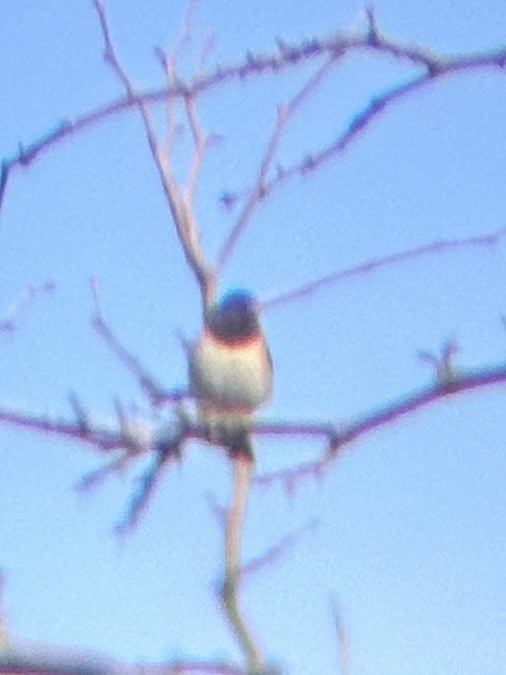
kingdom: Animalia
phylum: Chordata
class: Aves
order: Passeriformes
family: Passerellidae
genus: Junco
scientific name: Junco hyemalis
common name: Dark-eyed junco
